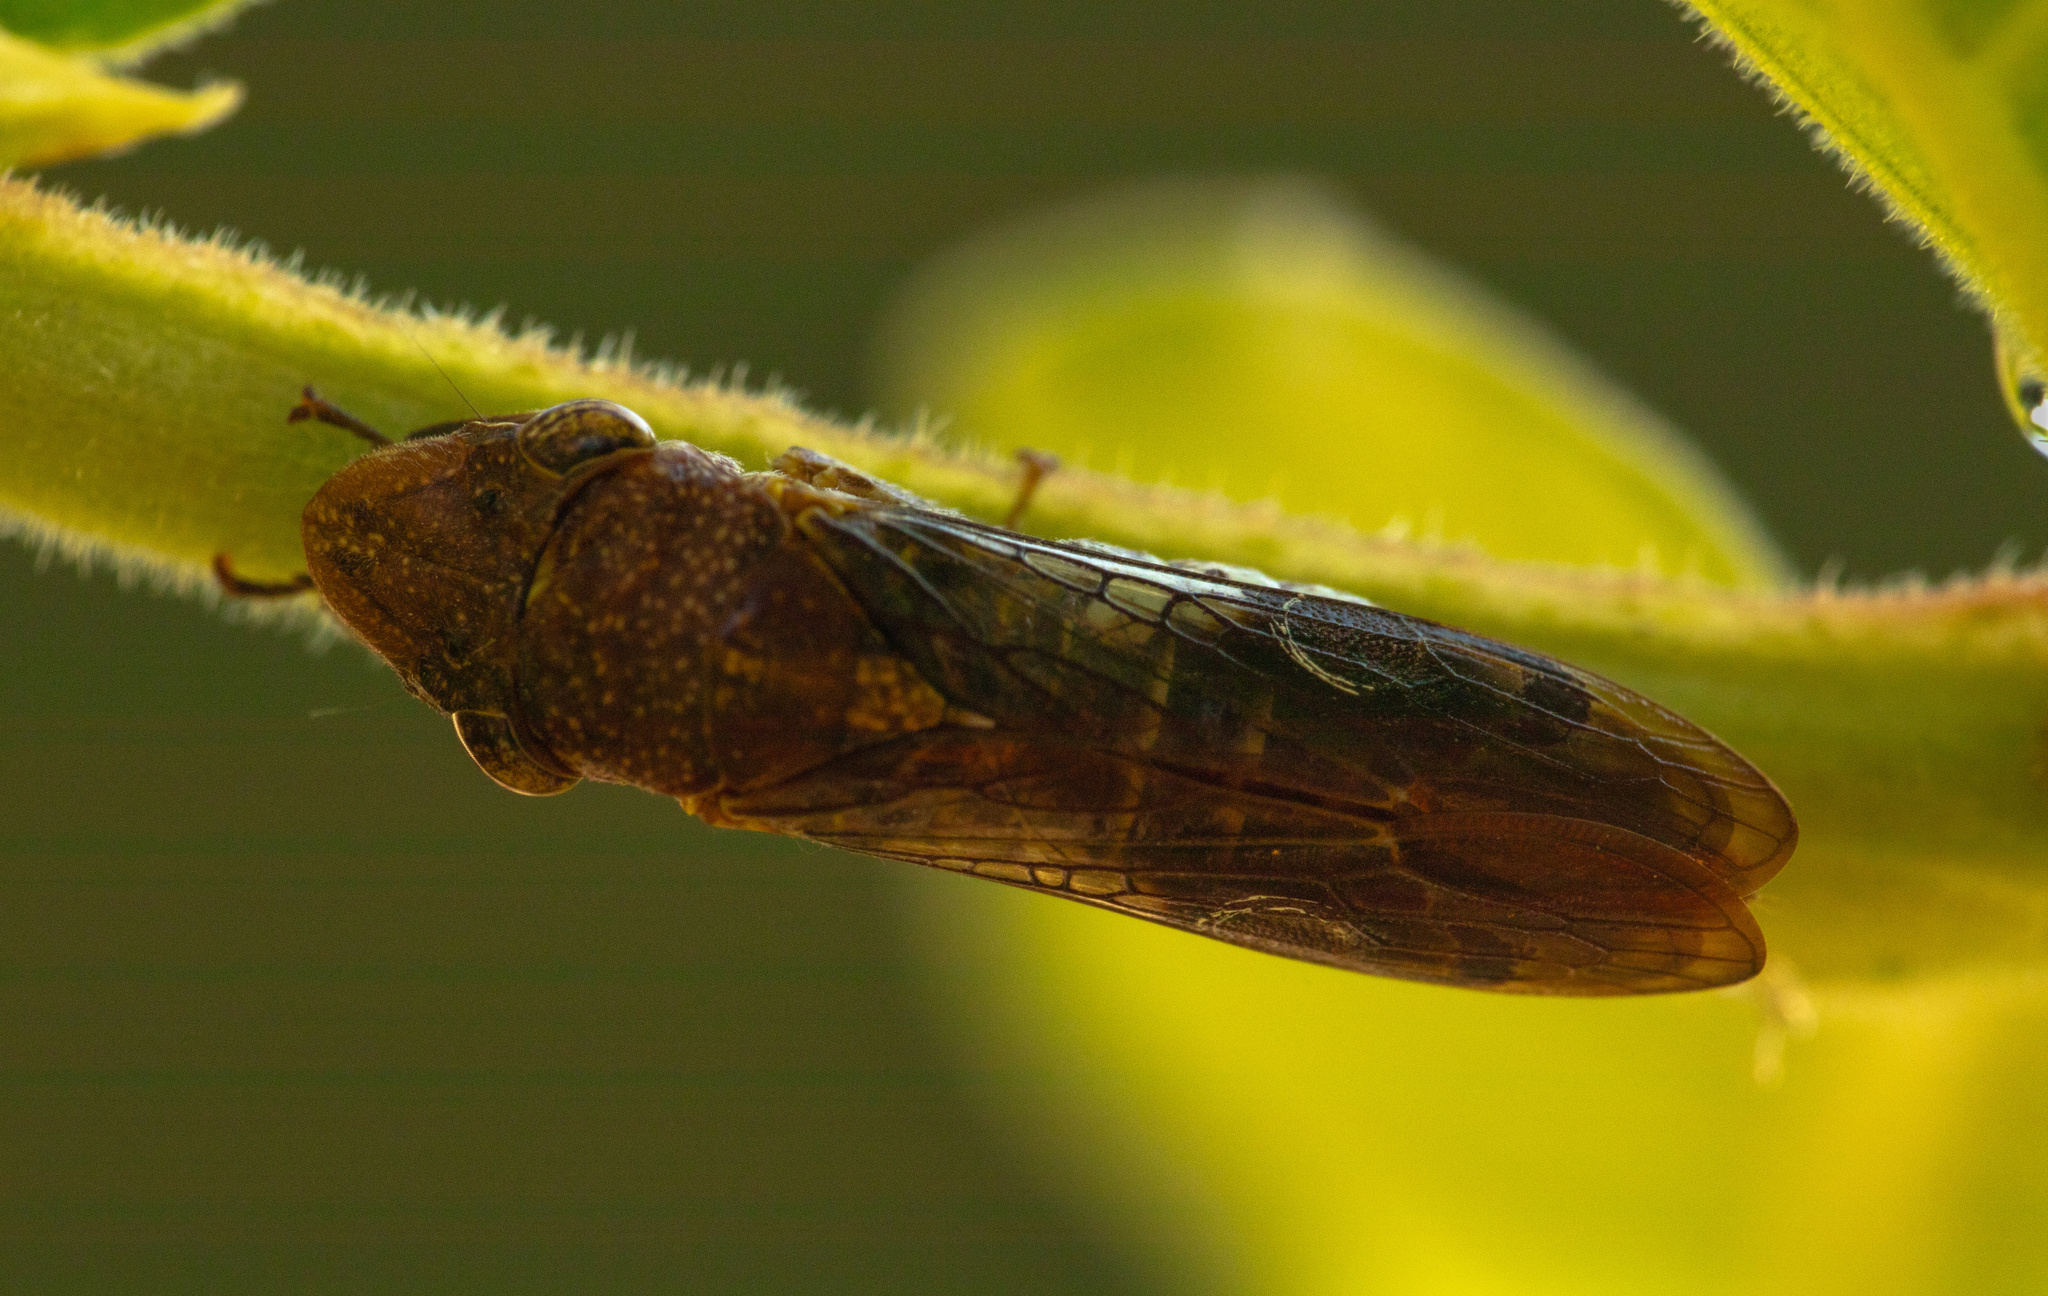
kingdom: Animalia
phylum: Arthropoda
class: Insecta
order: Hemiptera
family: Cicadellidae
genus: Homalodisca
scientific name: Homalodisca vitripennis
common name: Glassy-winged sharpshooter
